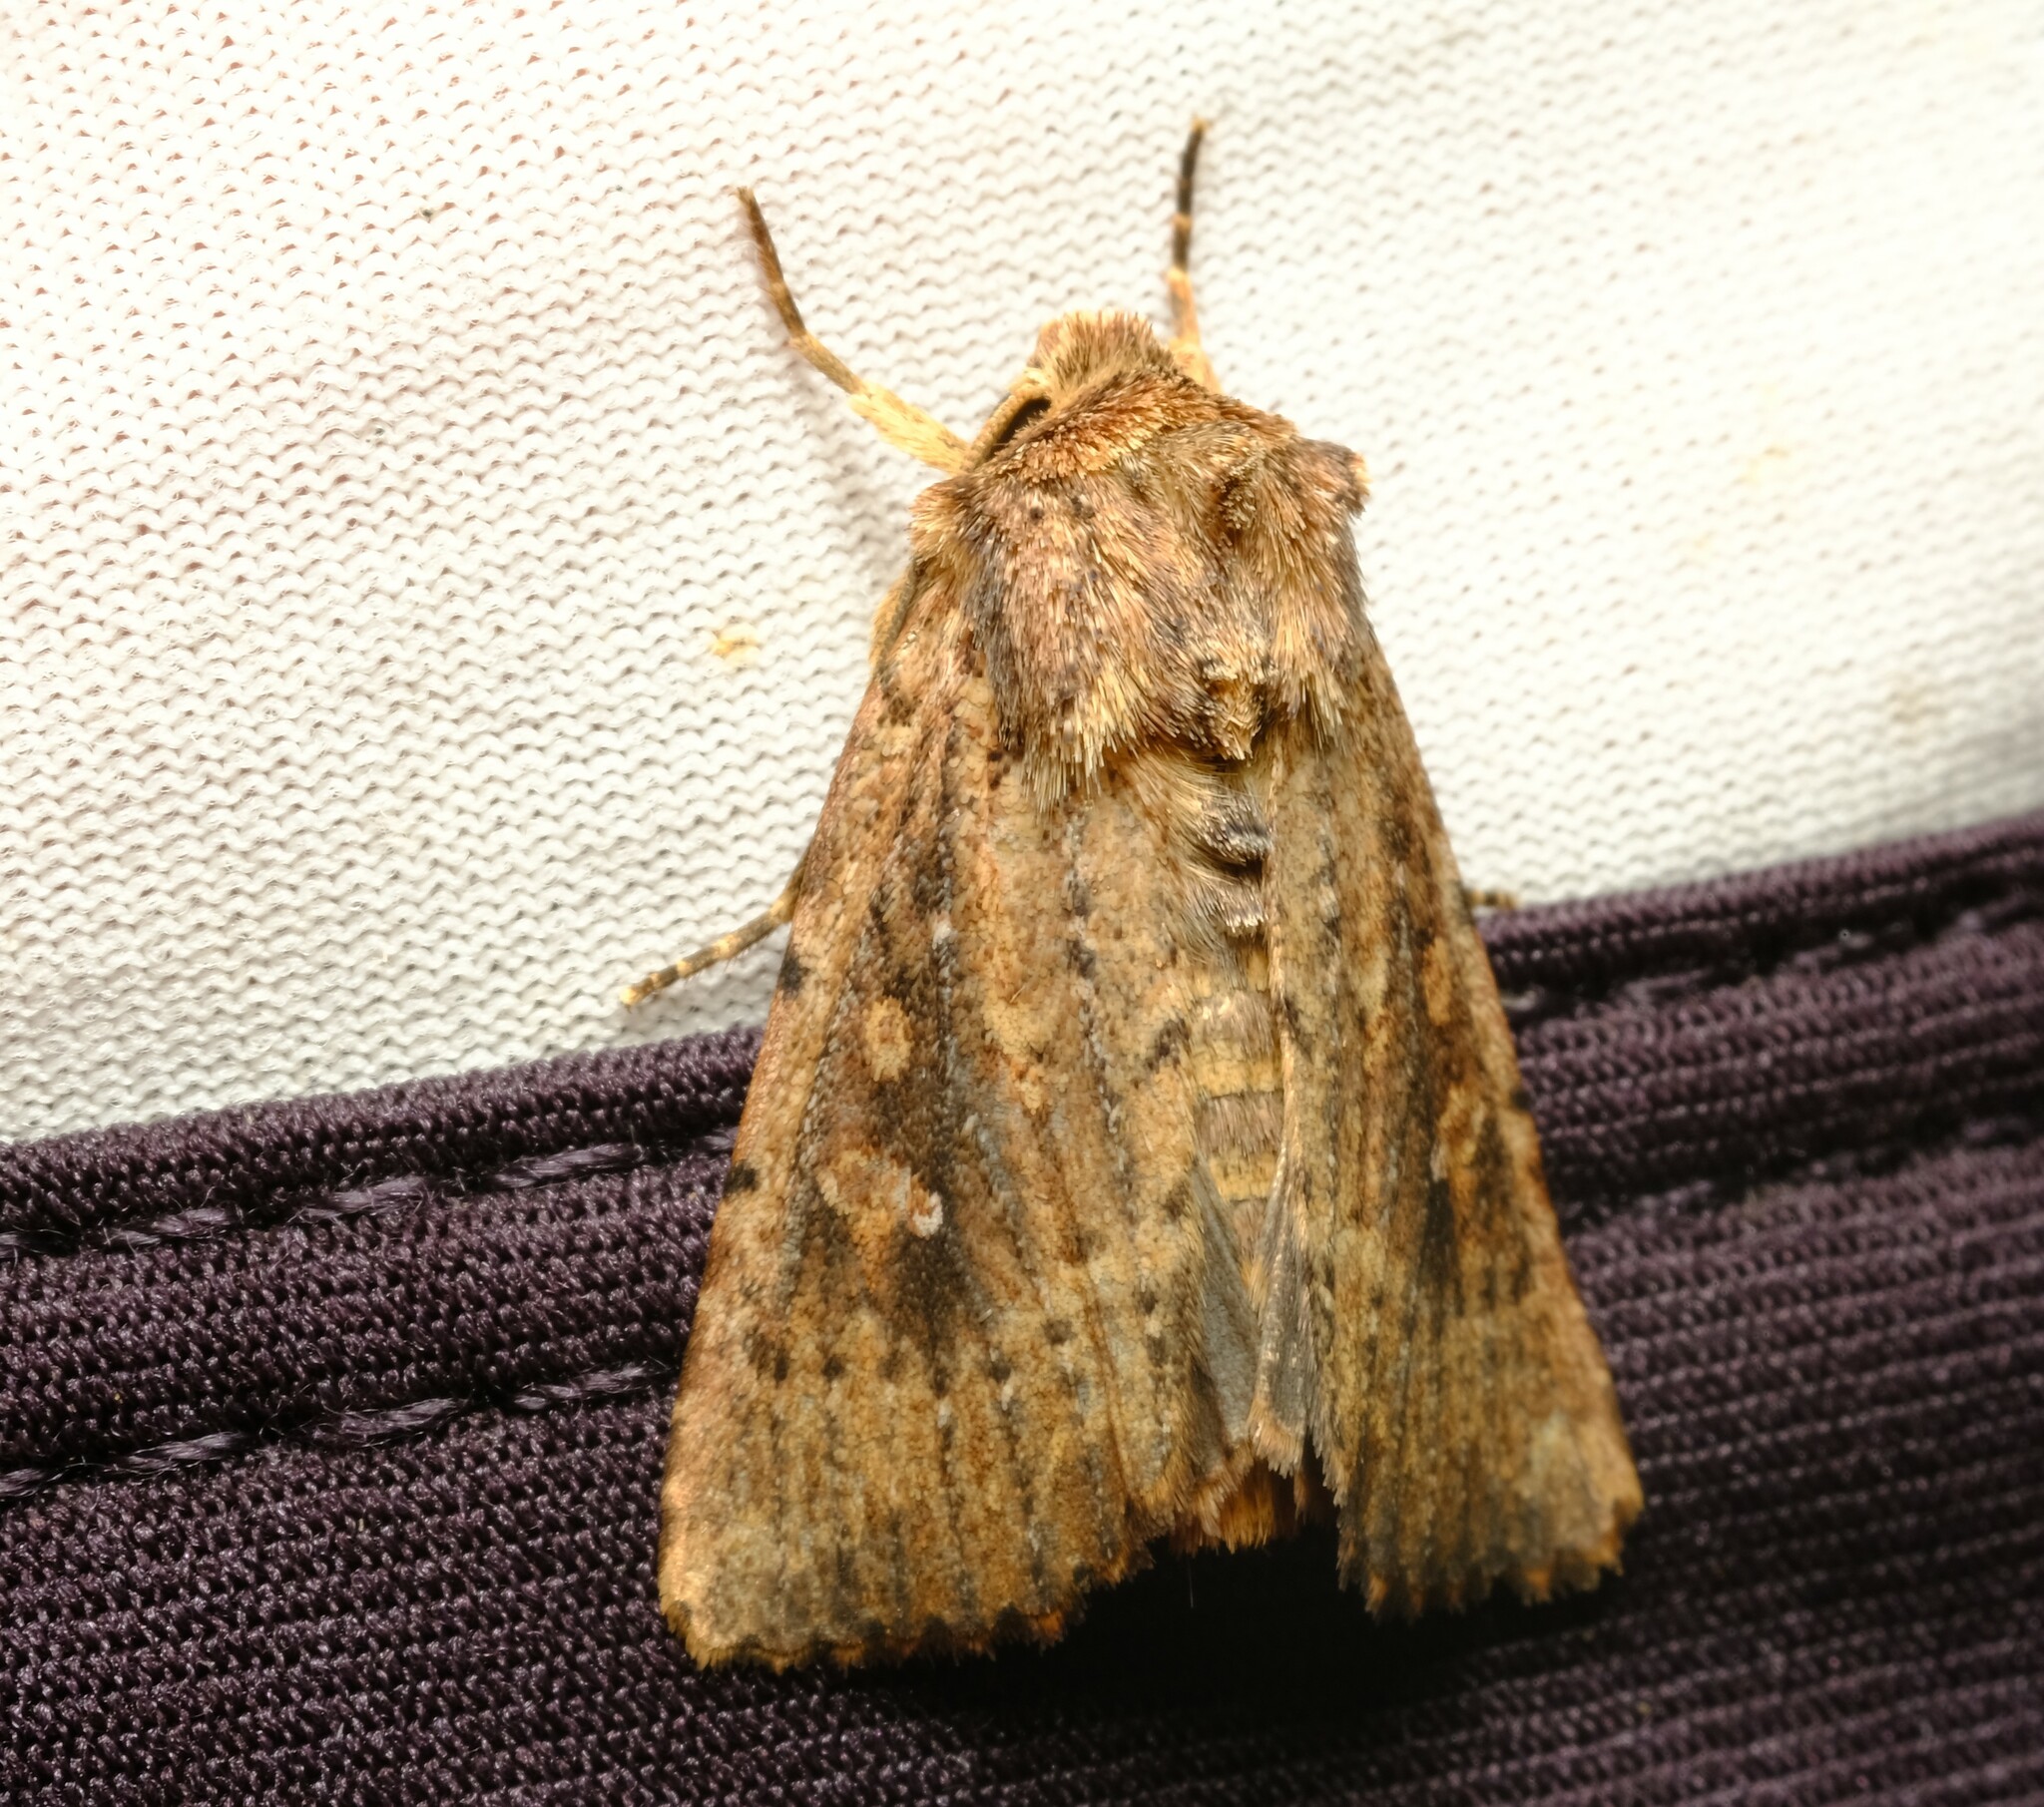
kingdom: Animalia
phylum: Arthropoda
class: Insecta
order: Lepidoptera
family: Noctuidae
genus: Dasygaster
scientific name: Dasygaster padockina
